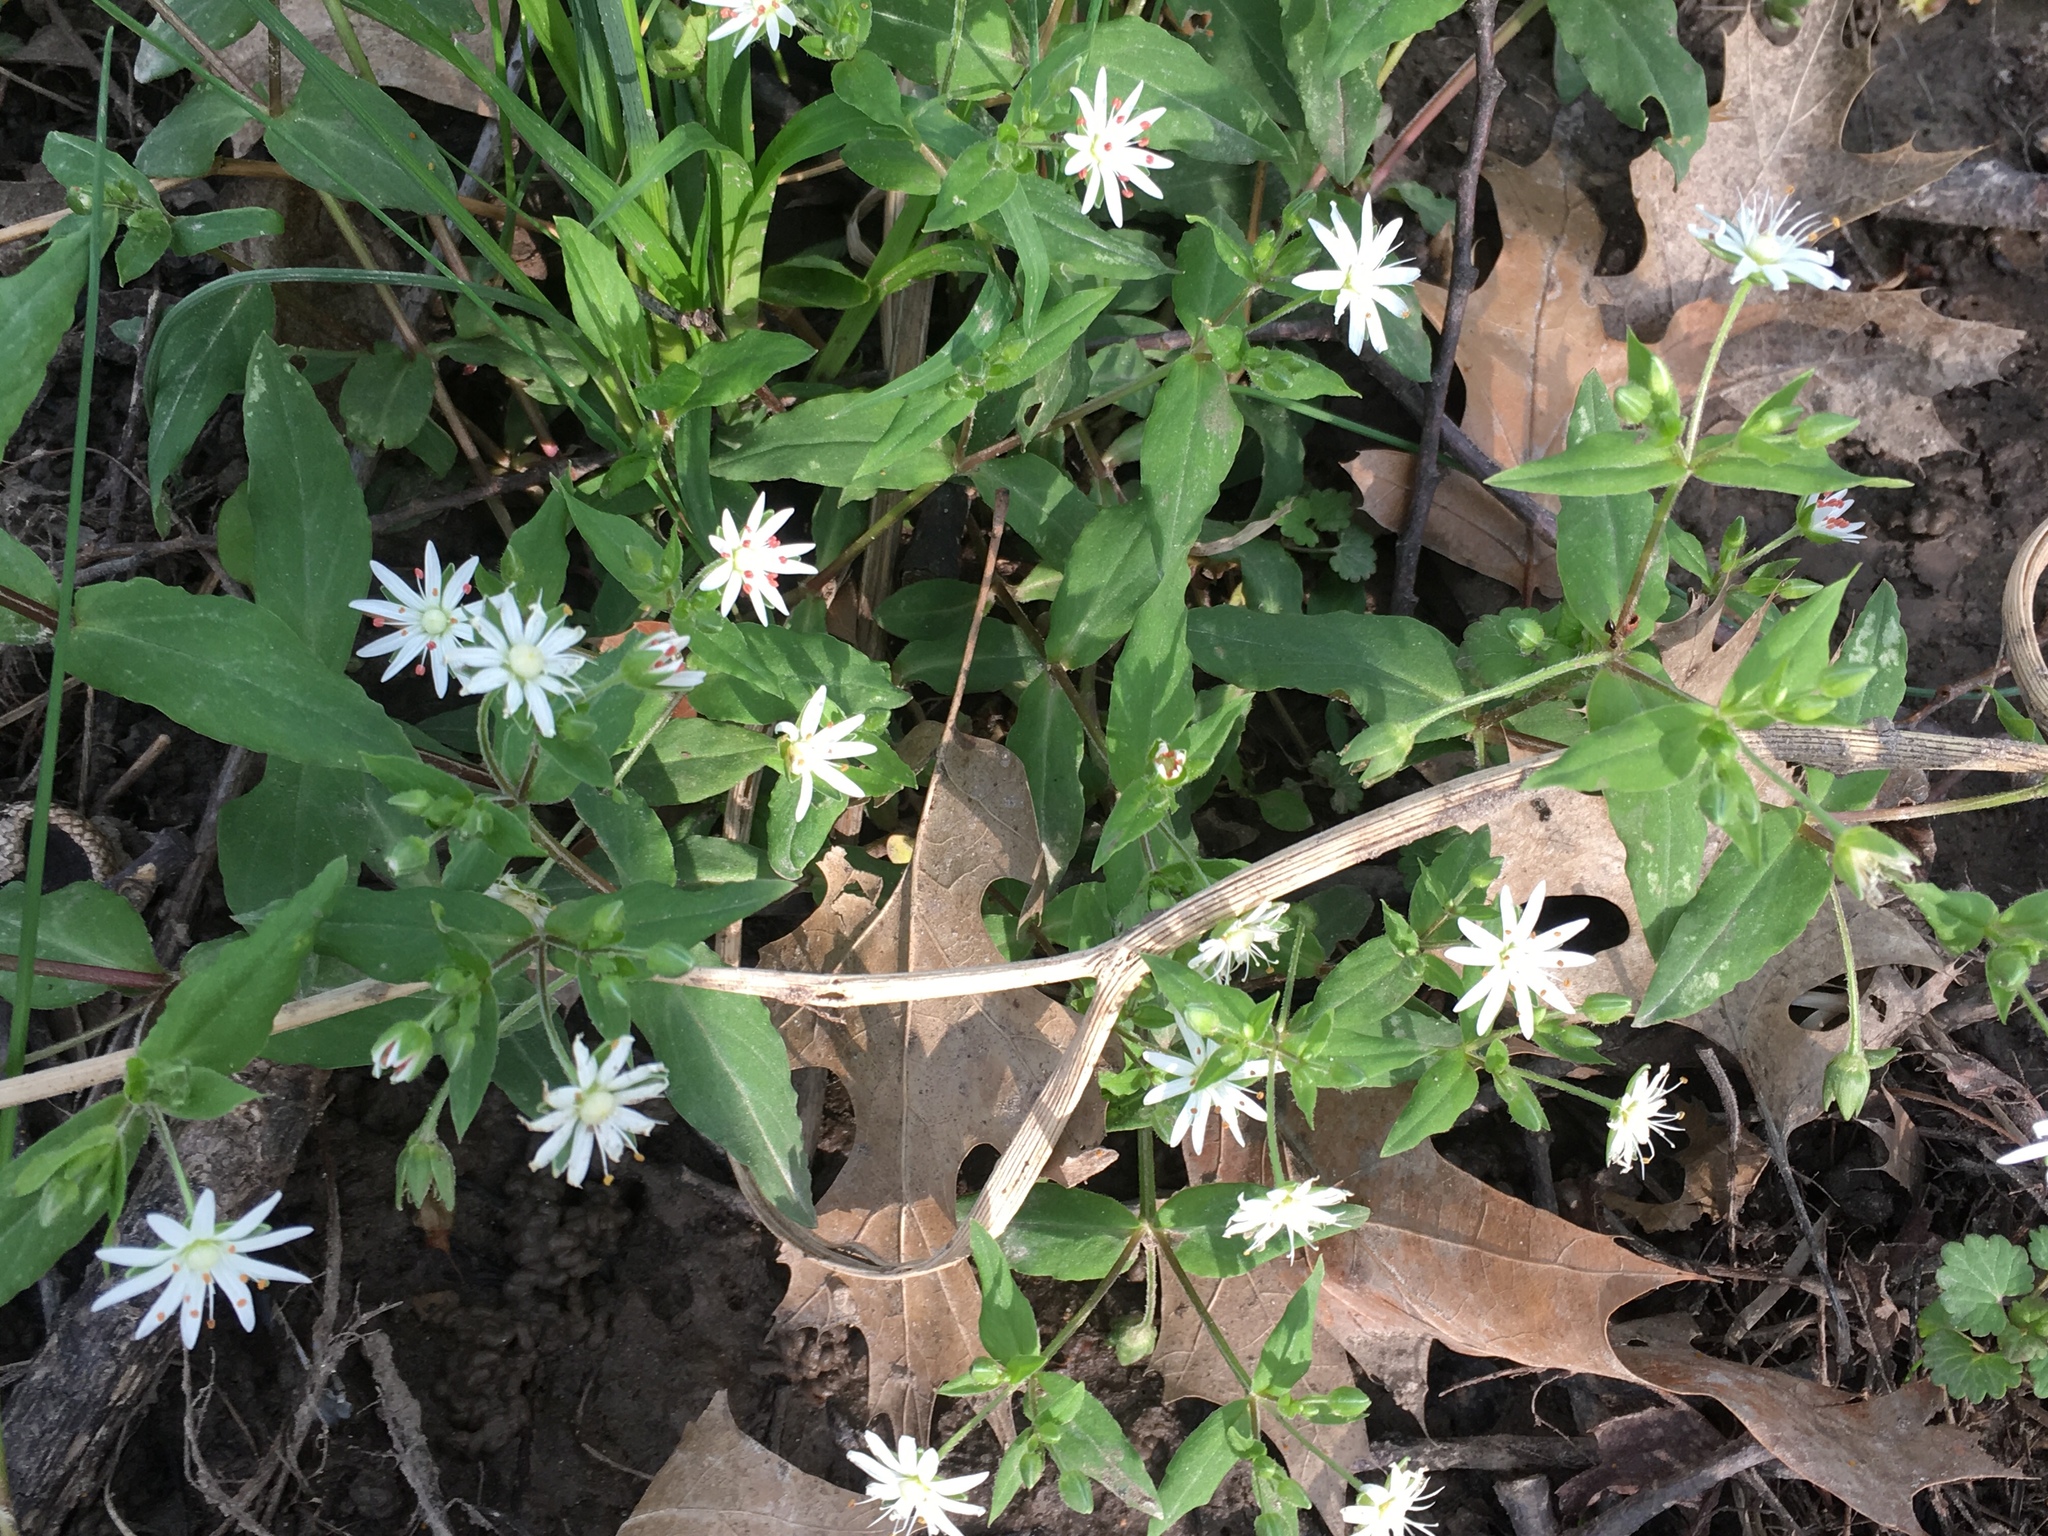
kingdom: Plantae
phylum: Tracheophyta
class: Magnoliopsida
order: Caryophyllales
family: Caryophyllaceae
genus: Stellaria
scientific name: Stellaria pubera
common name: Star chickweed
